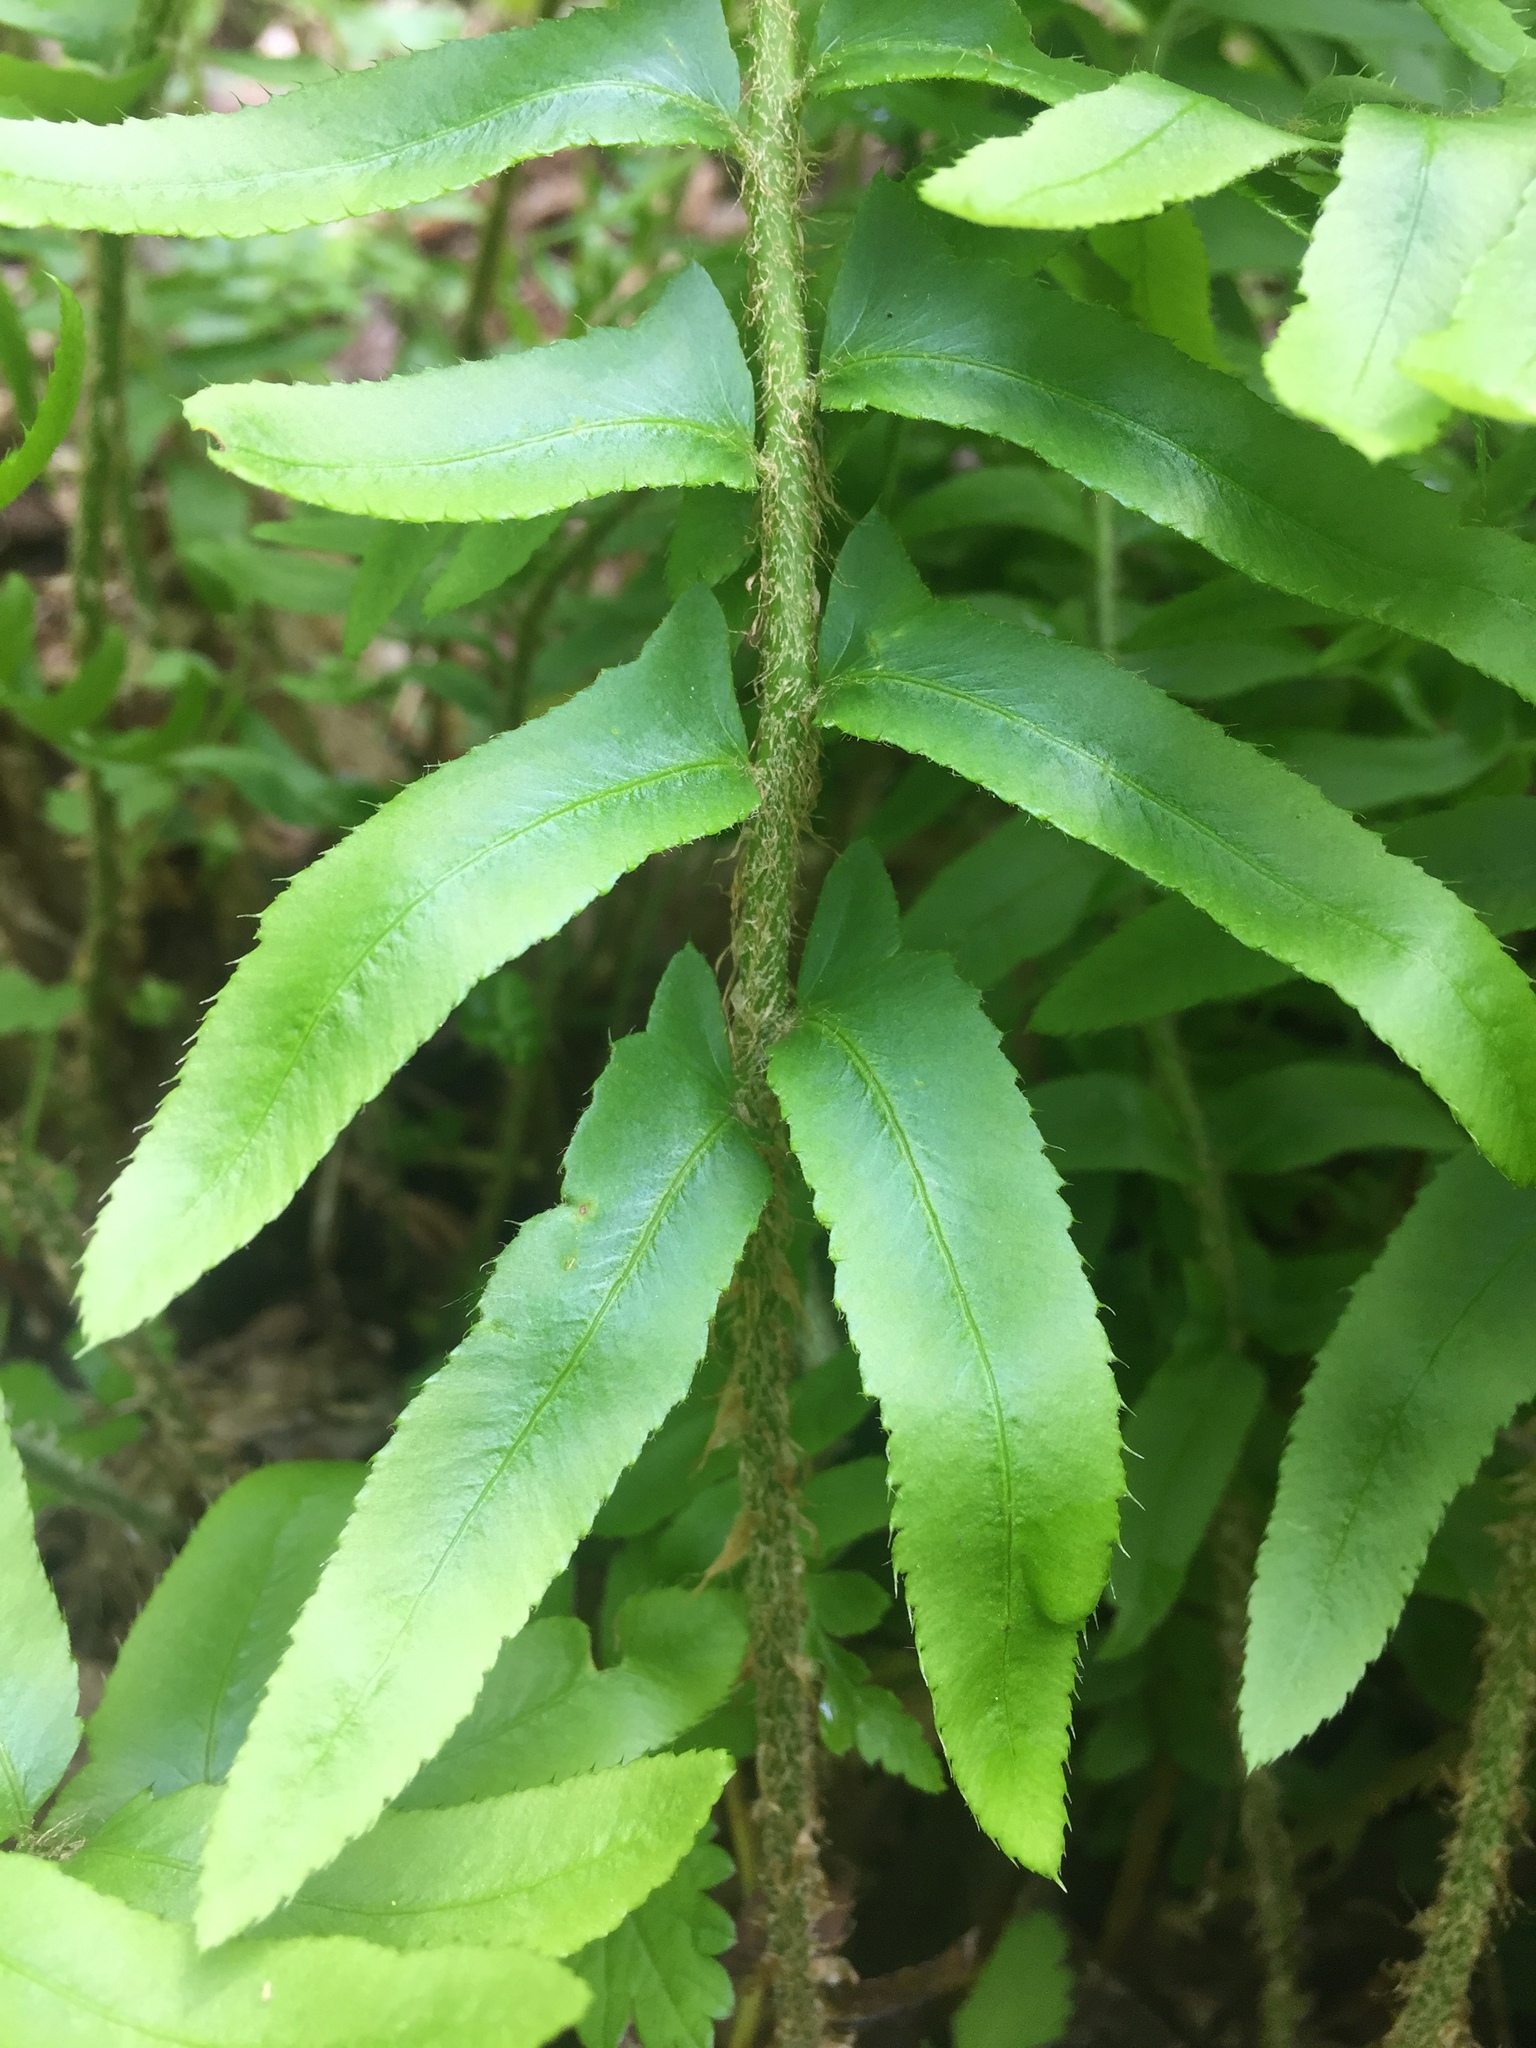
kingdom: Plantae
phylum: Tracheophyta
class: Polypodiopsida
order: Polypodiales
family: Dryopteridaceae
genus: Polystichum
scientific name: Polystichum acrostichoides
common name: Christmas fern
